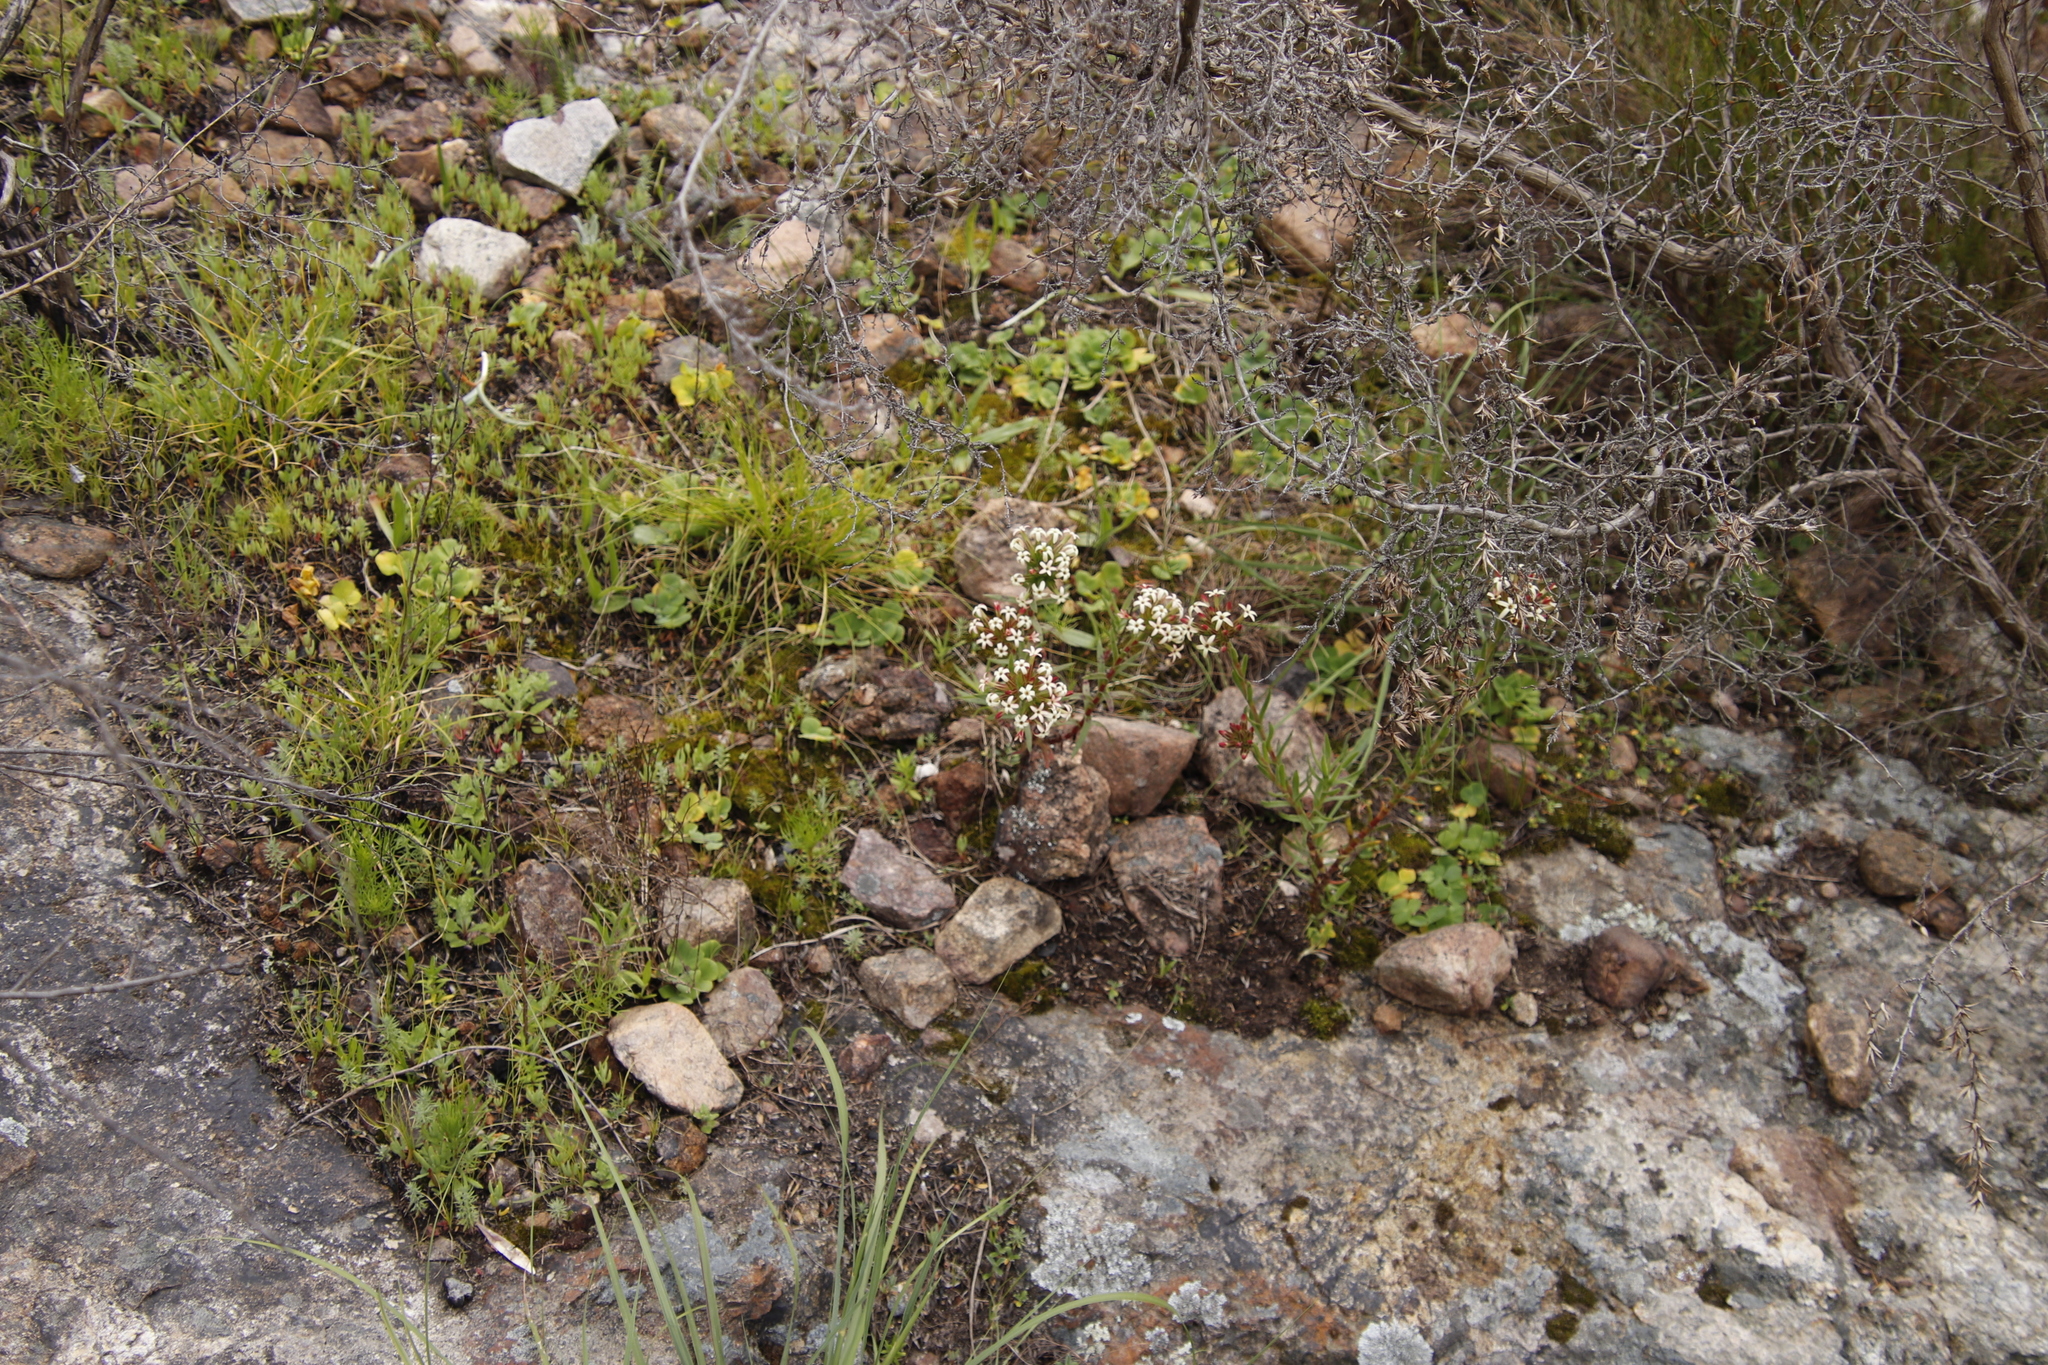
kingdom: Plantae
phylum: Tracheophyta
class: Magnoliopsida
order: Saxifragales
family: Crassulaceae
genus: Crassula
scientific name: Crassula fascicularis
